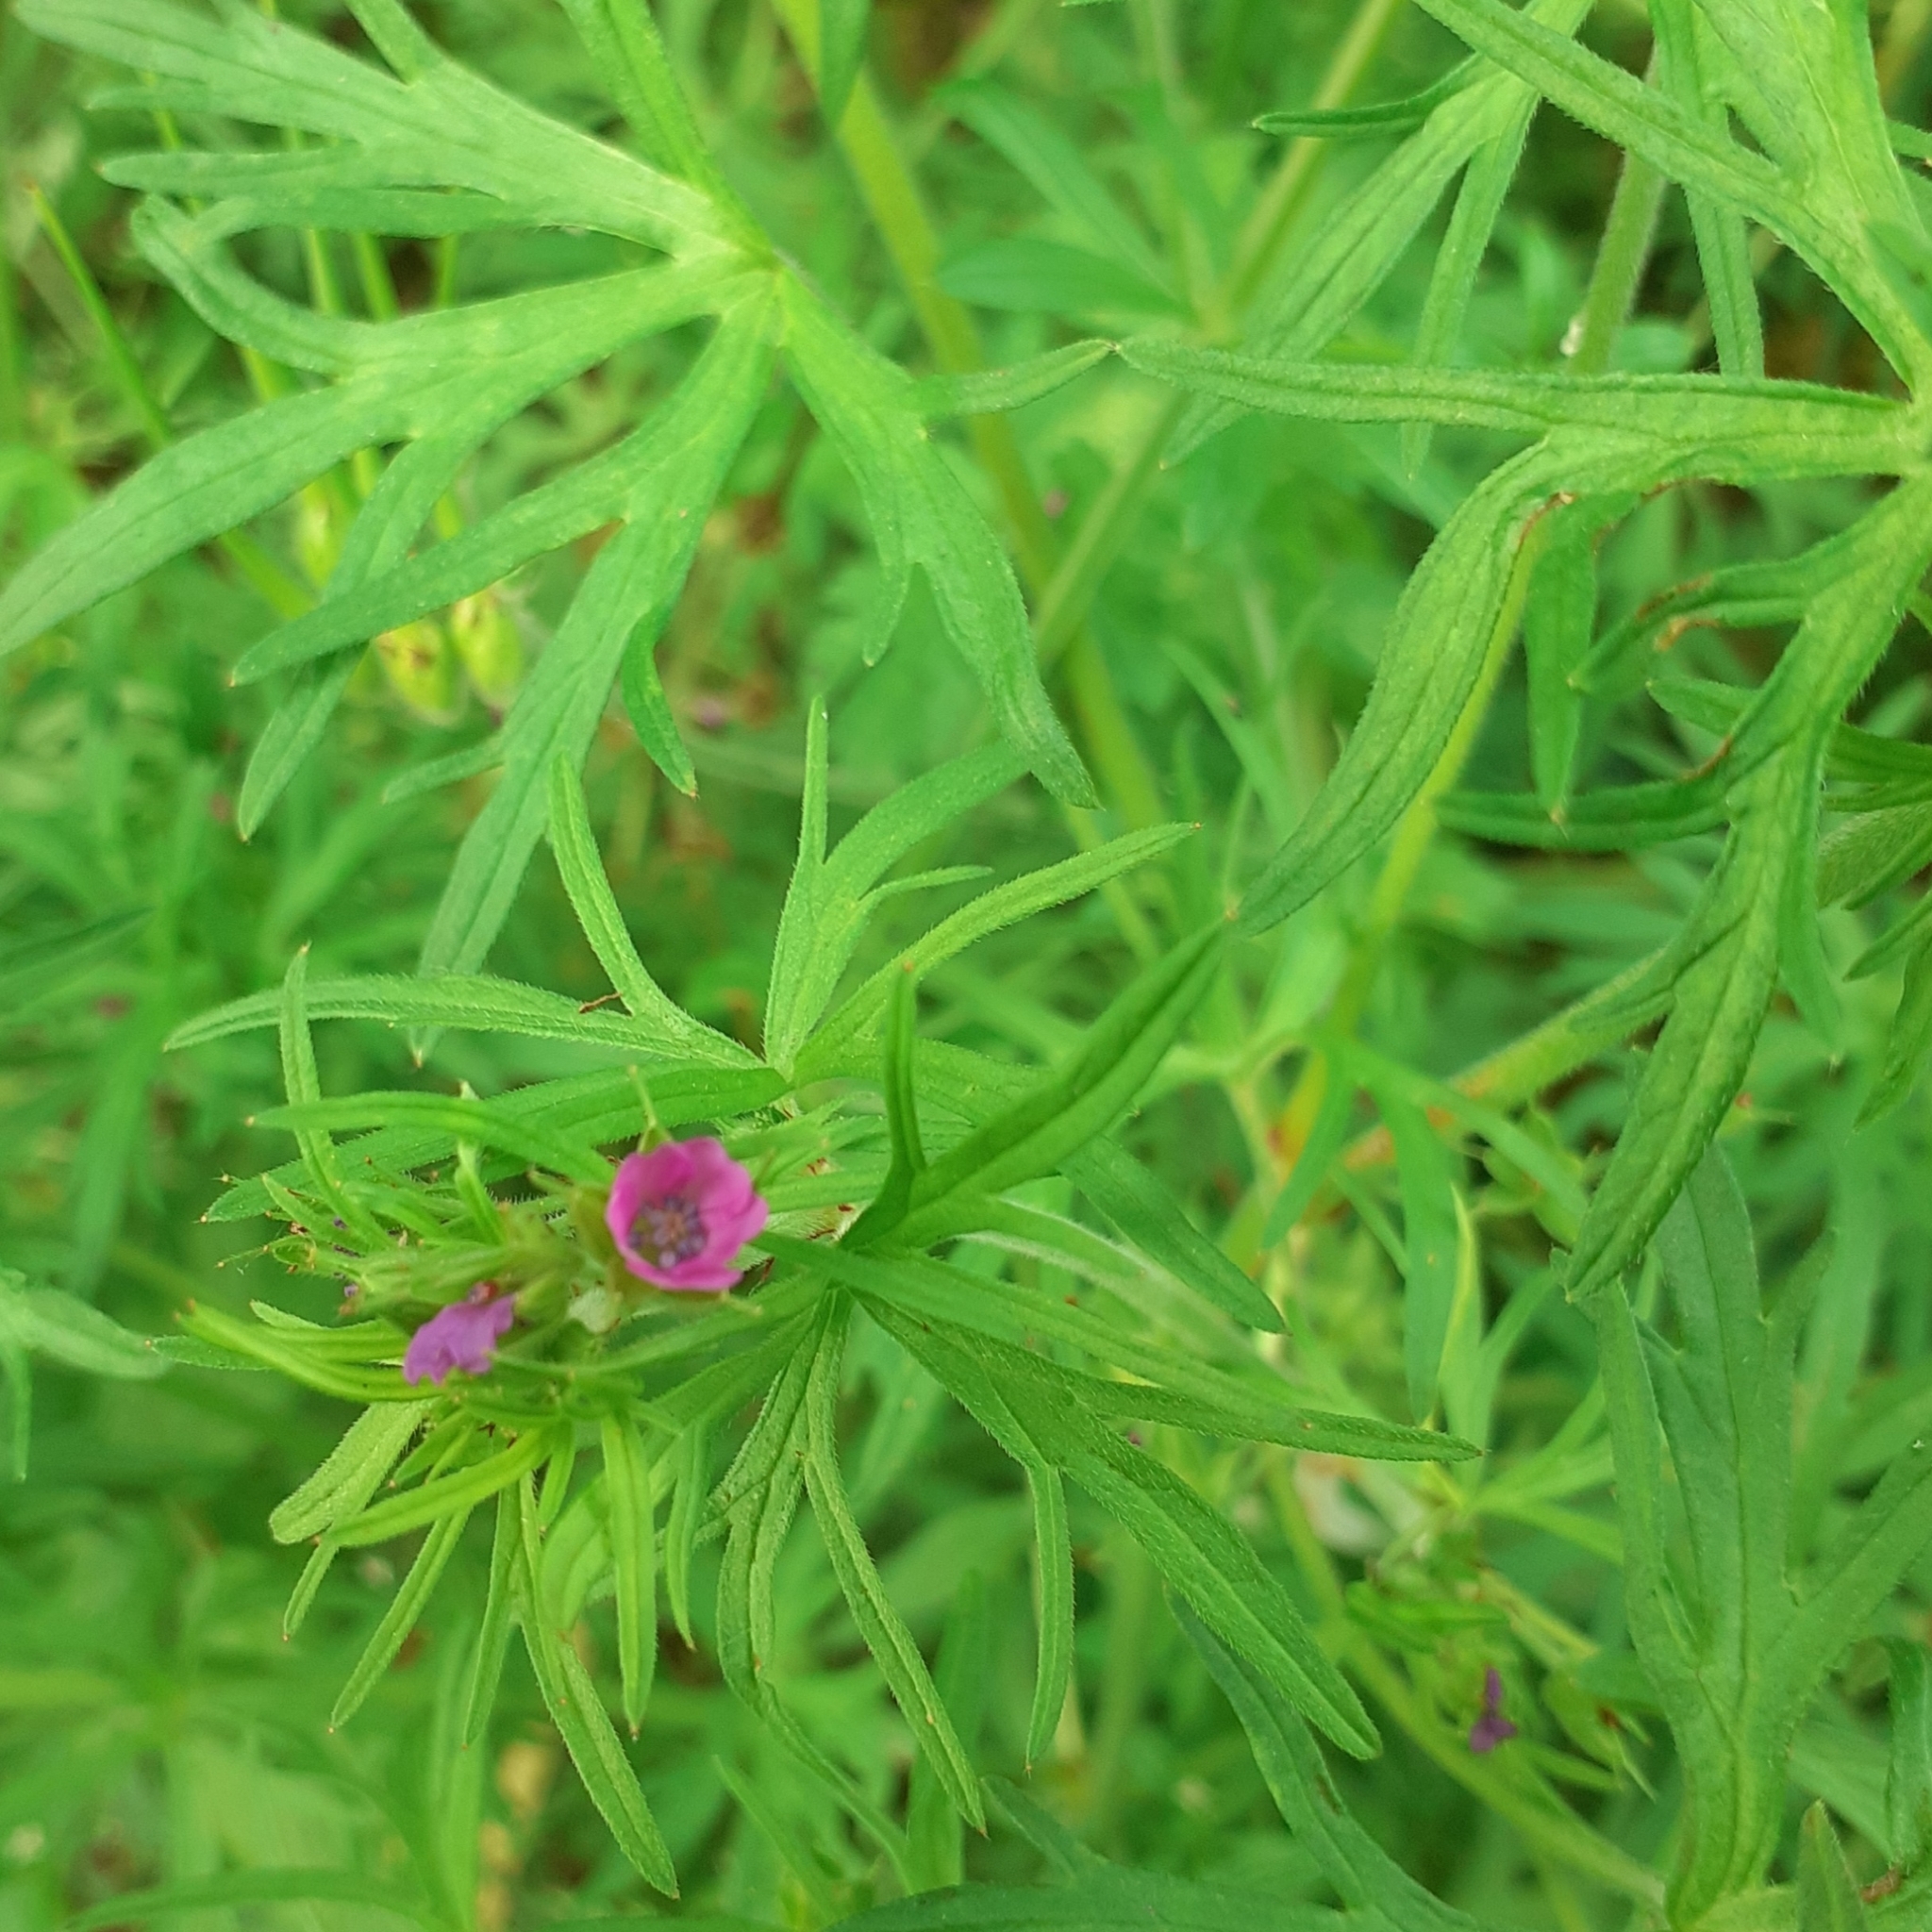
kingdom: Plantae
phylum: Tracheophyta
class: Magnoliopsida
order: Geraniales
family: Geraniaceae
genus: Geranium
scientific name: Geranium dissectum
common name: Cut-leaved crane's-bill
